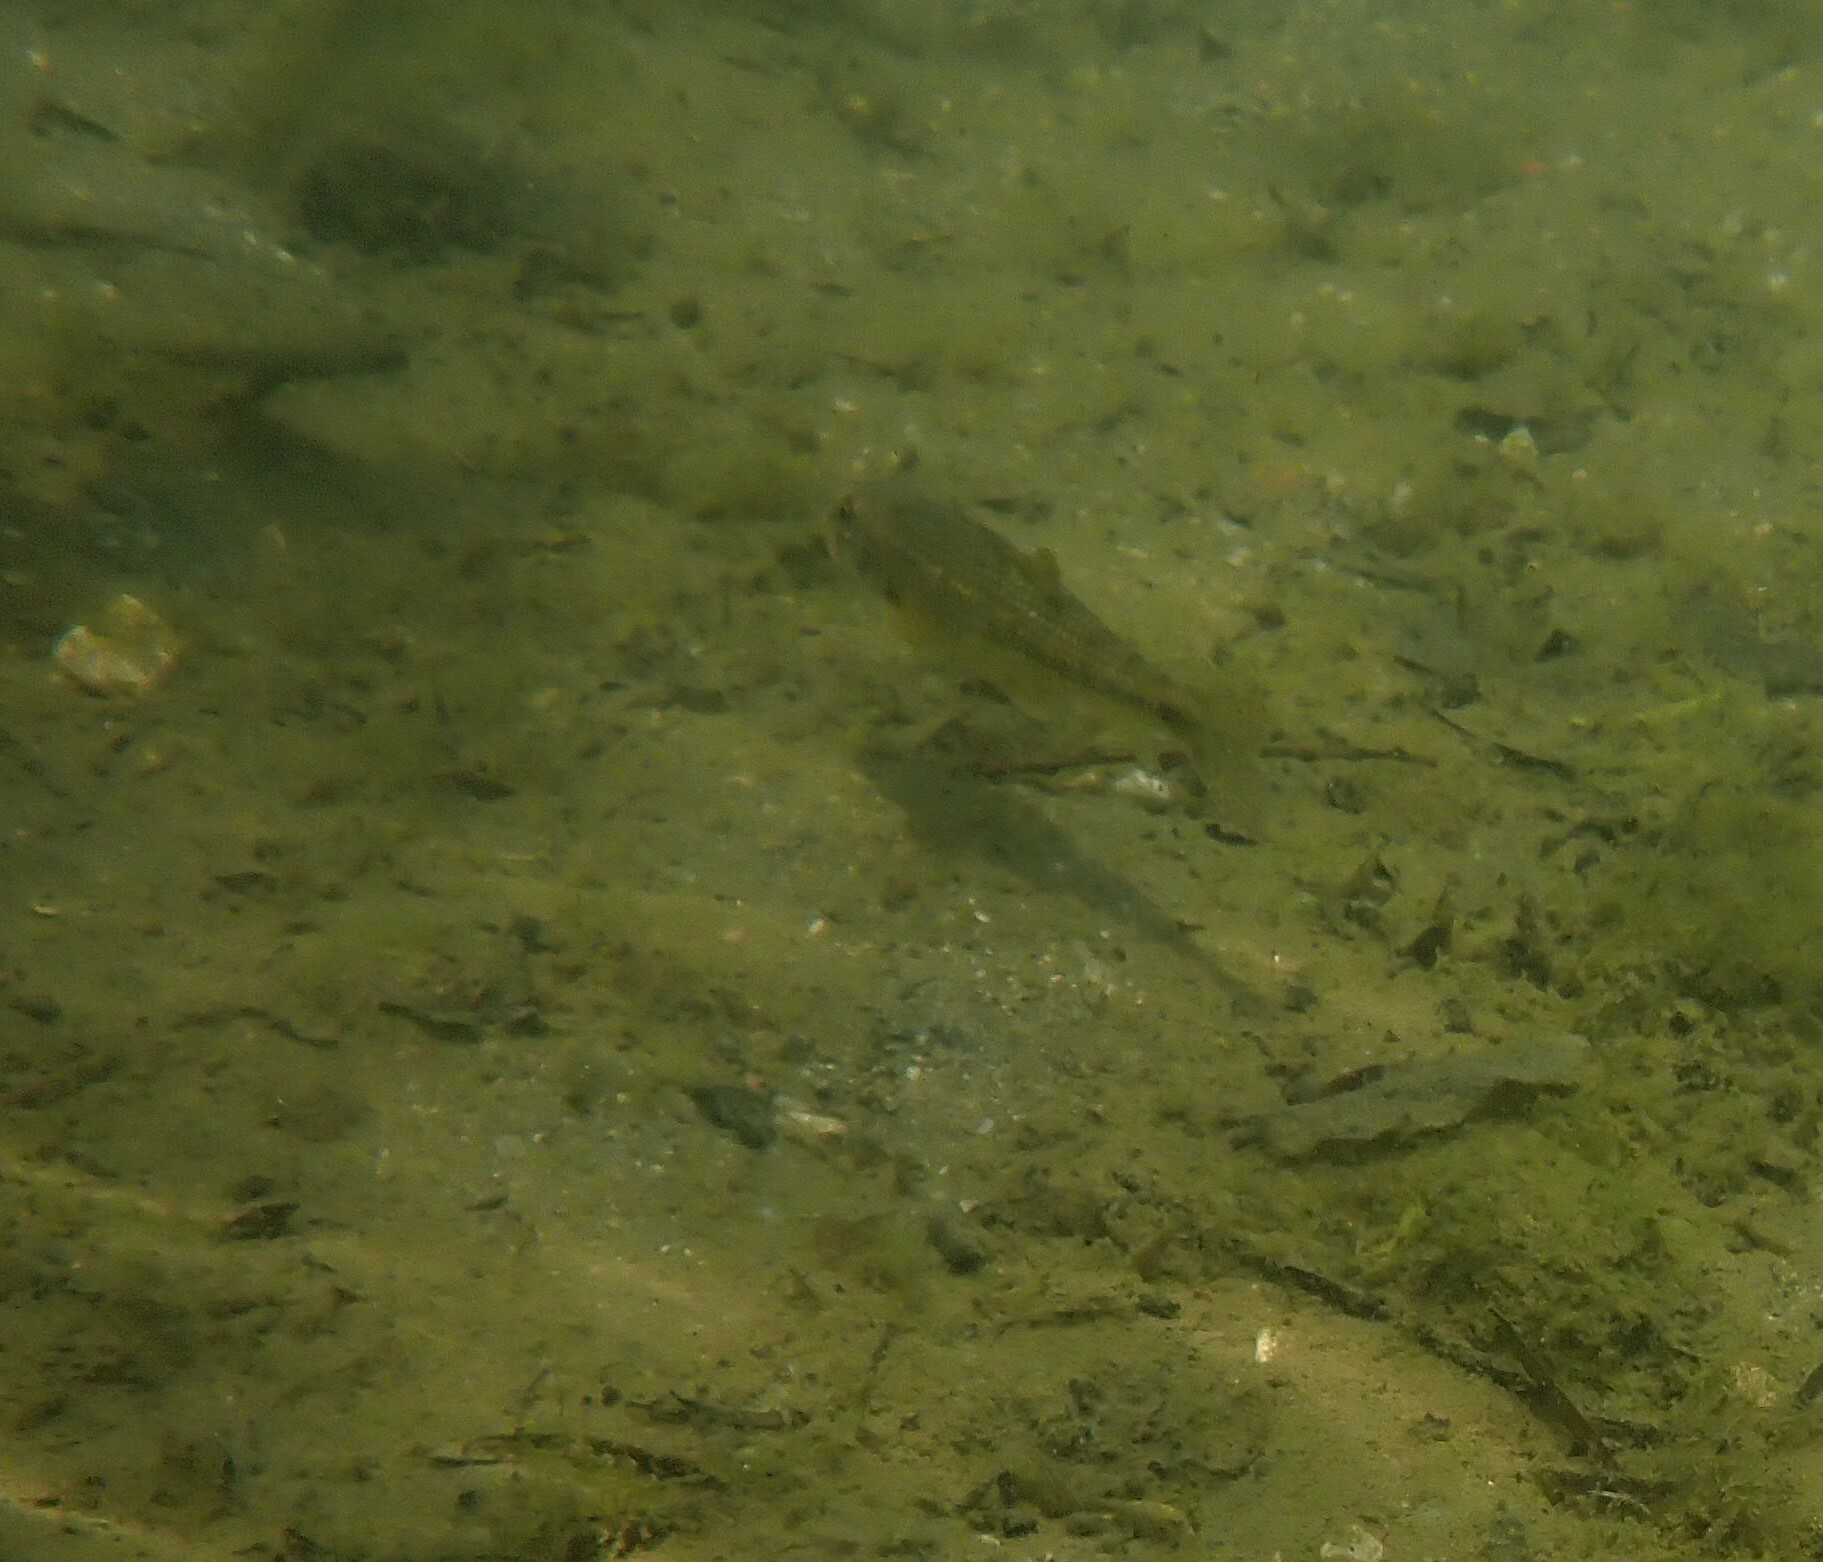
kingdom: Animalia
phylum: Chordata
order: Cypriniformes
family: Cyprinidae
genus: Gobio
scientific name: Gobio occitaniae
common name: Languedoc gudgeon
